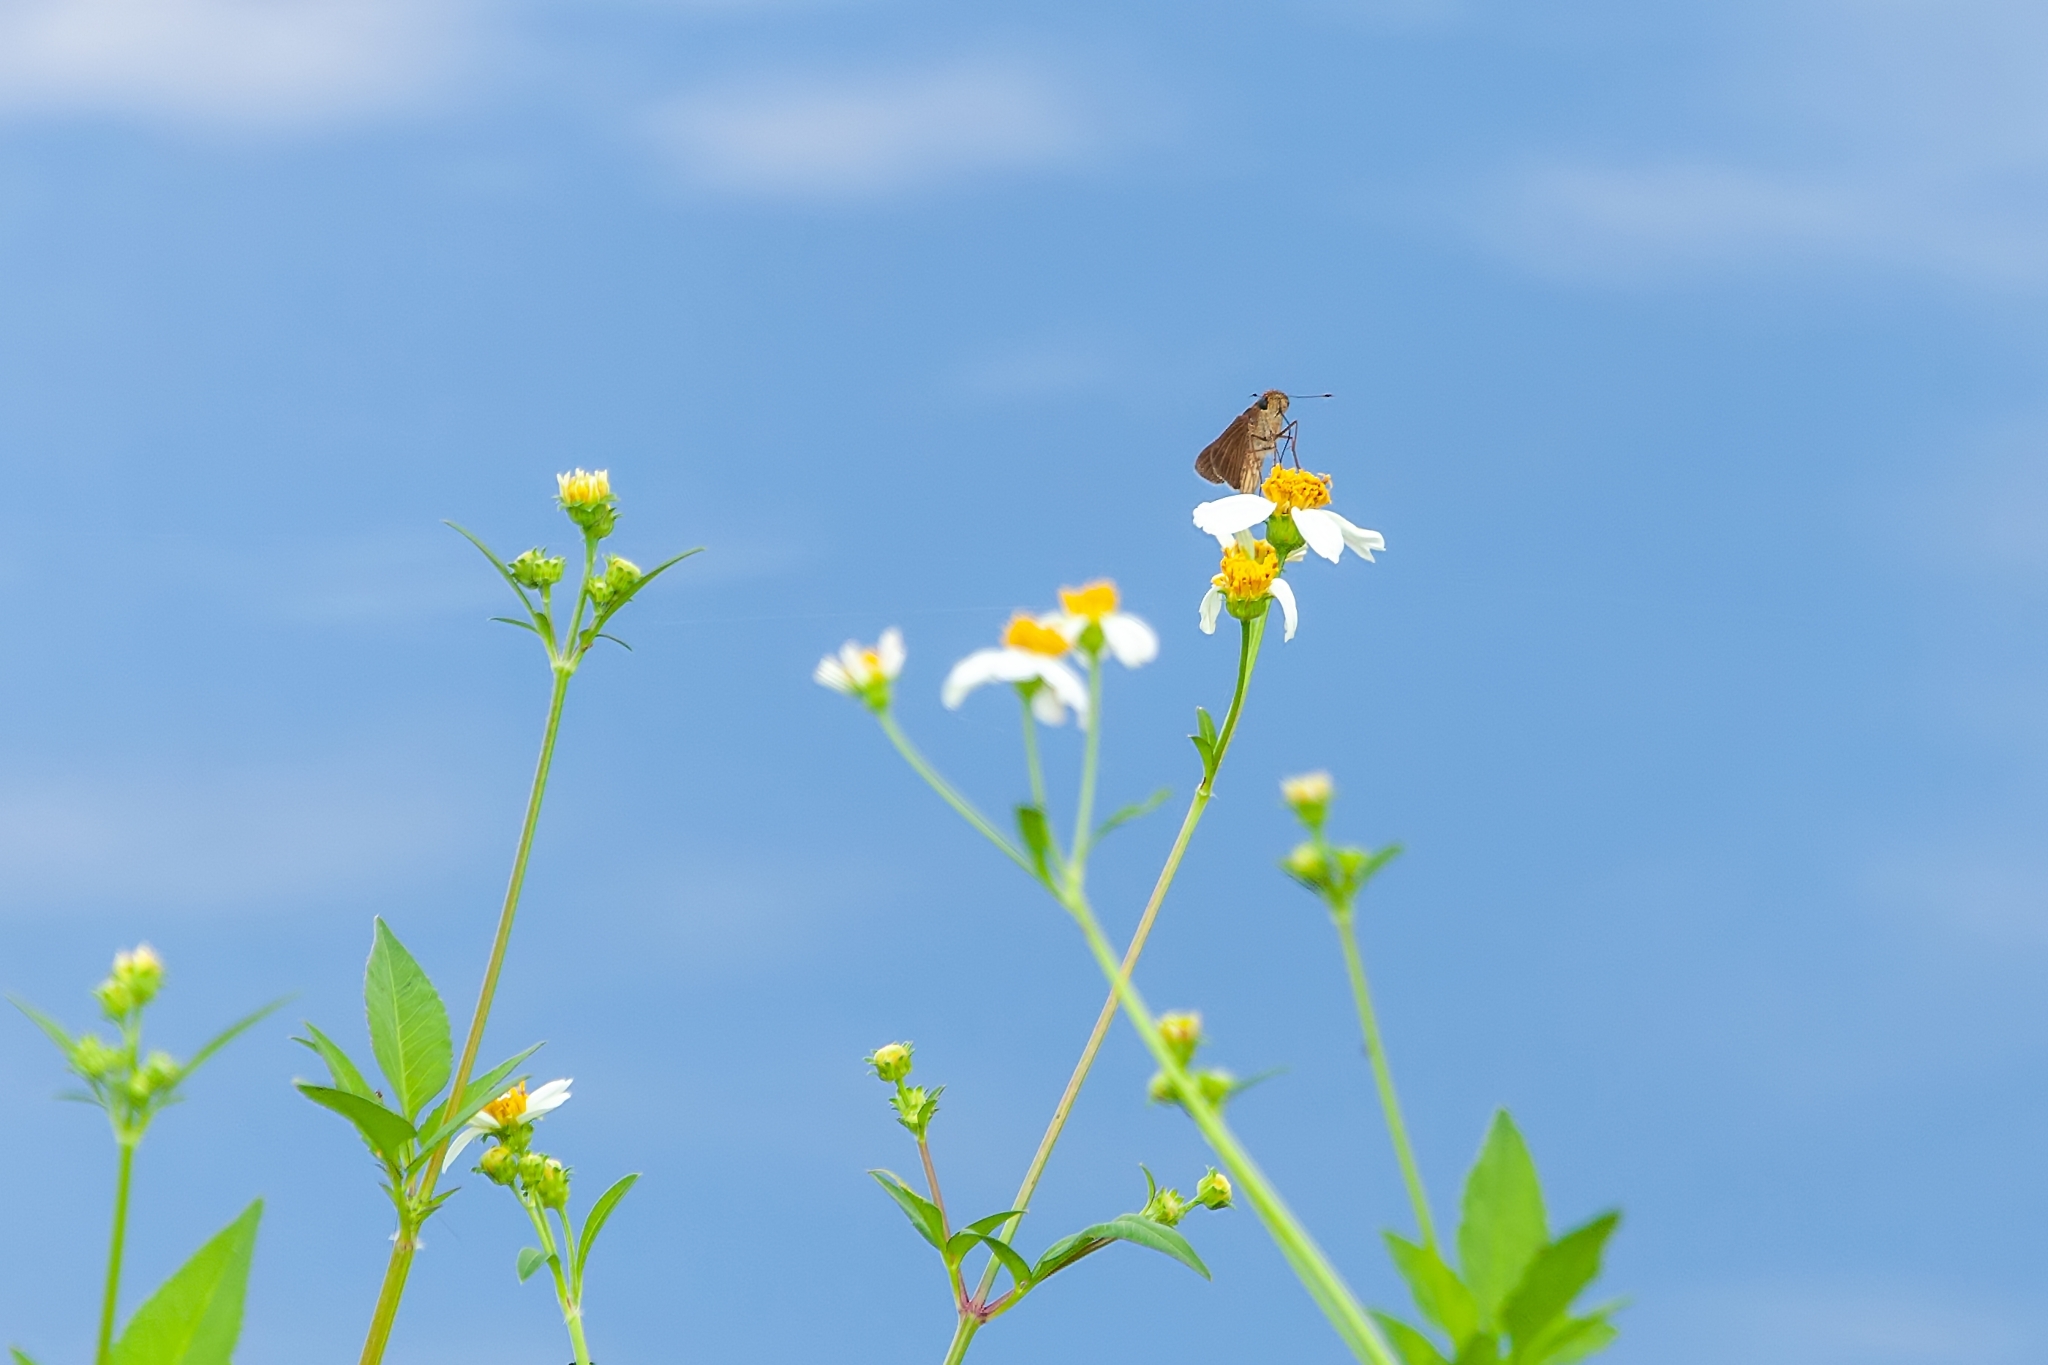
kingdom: Animalia
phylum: Arthropoda
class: Insecta
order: Lepidoptera
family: Hesperiidae
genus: Panoquina
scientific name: Panoquina ocola
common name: Ocola skipper
